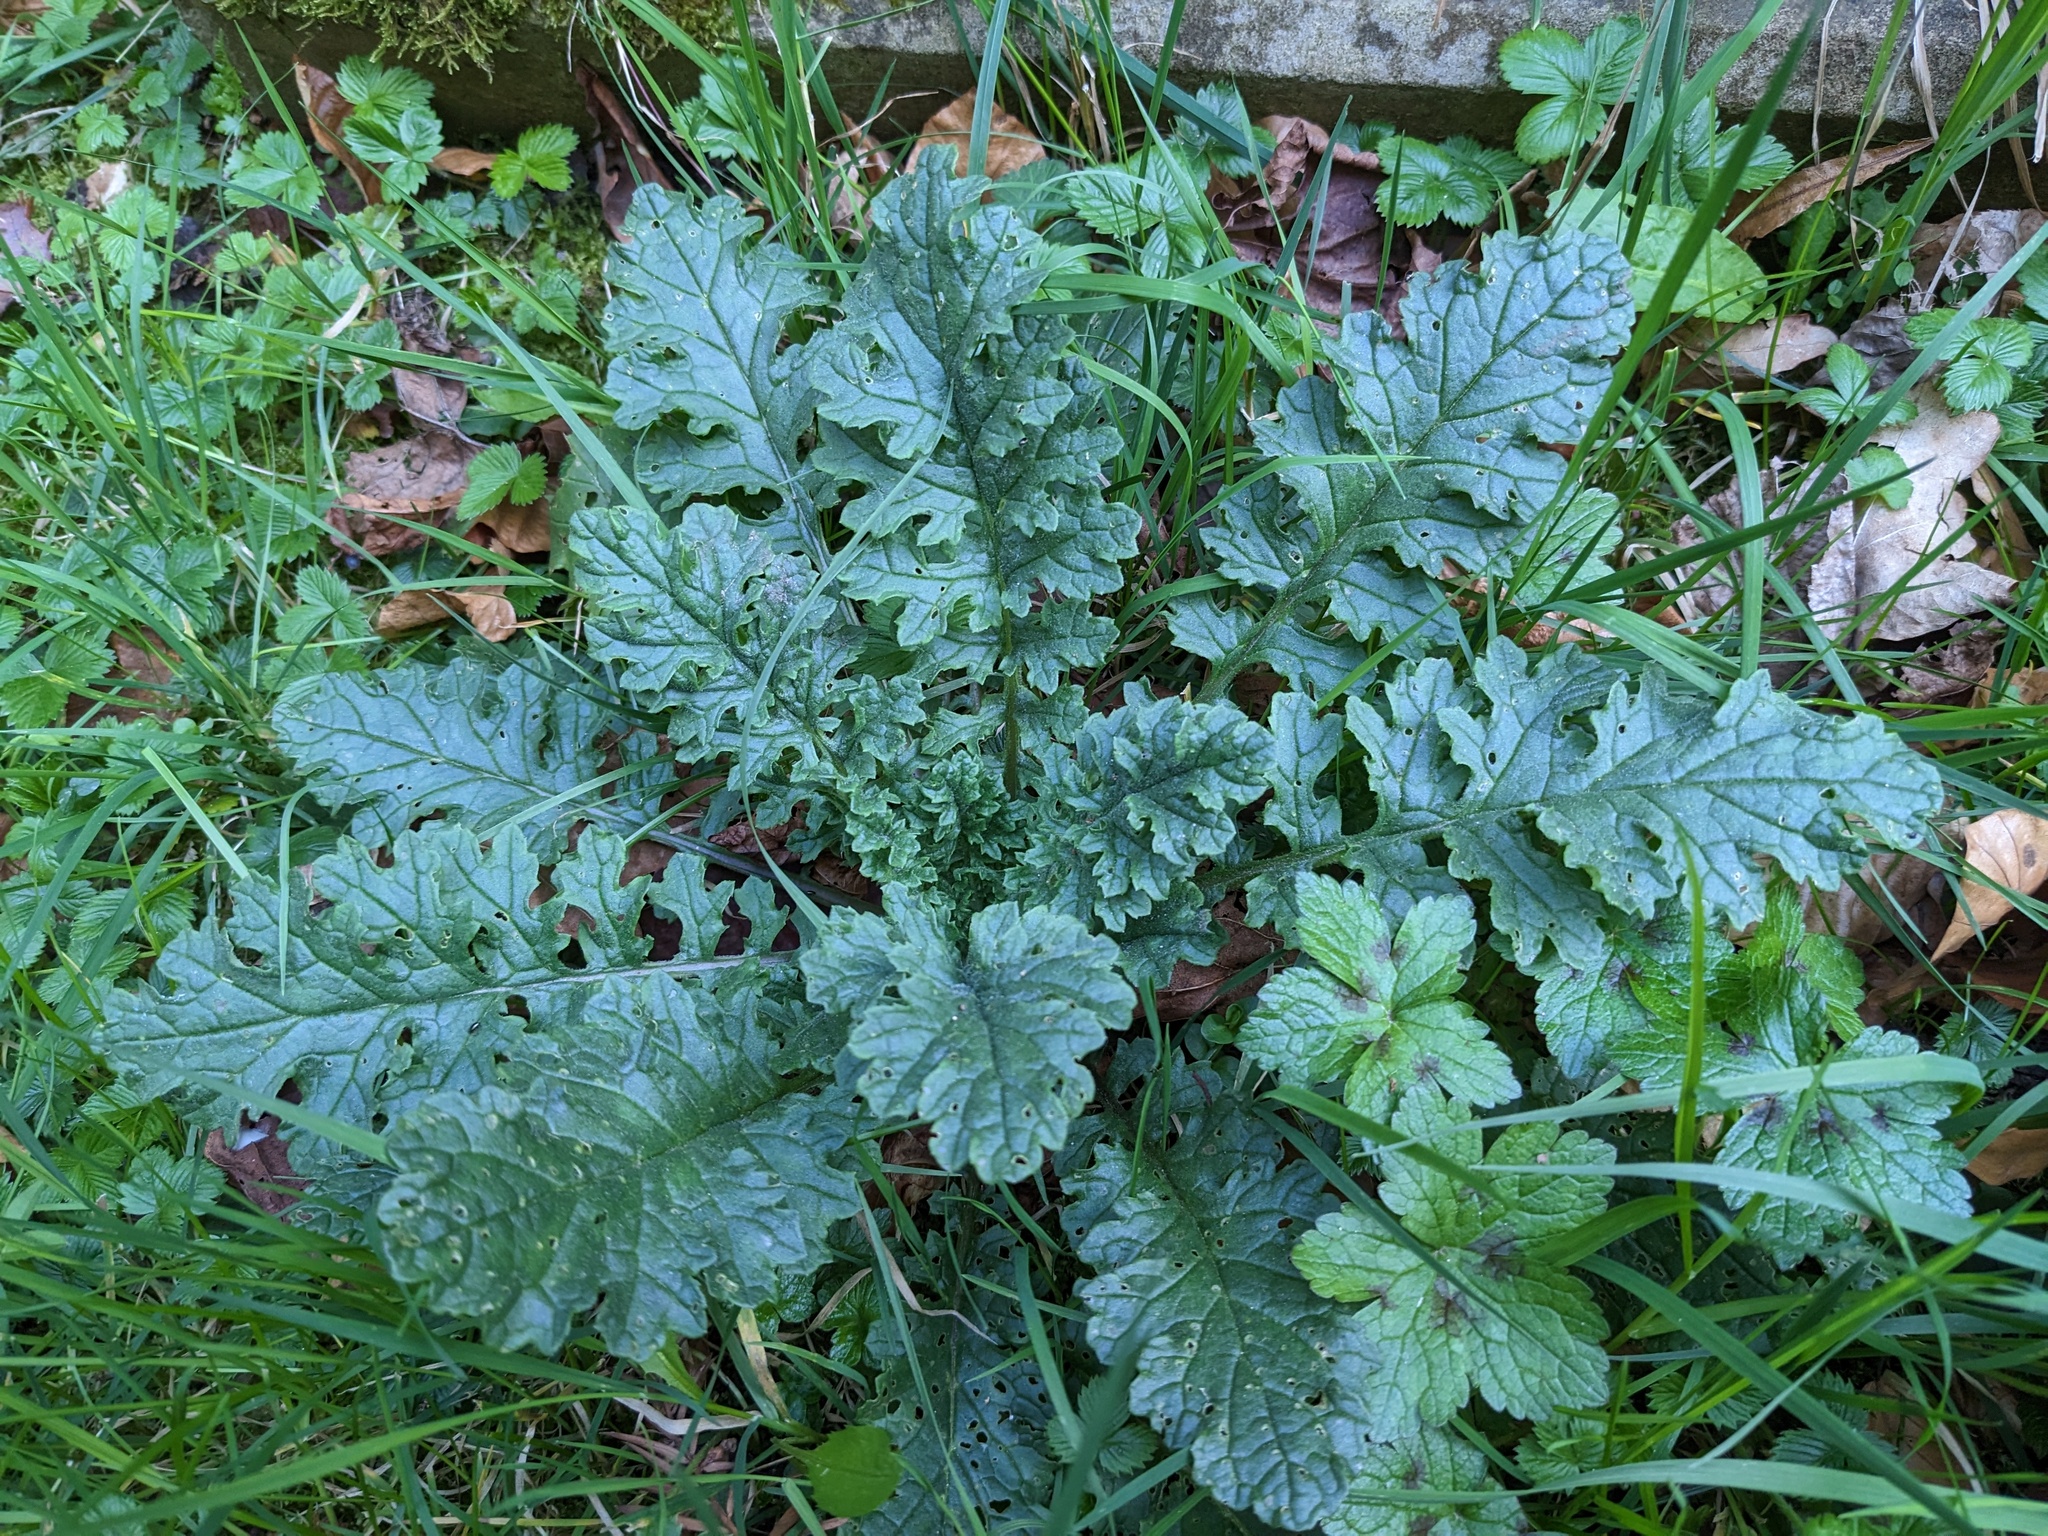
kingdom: Plantae
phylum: Tracheophyta
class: Magnoliopsida
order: Asterales
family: Asteraceae
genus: Jacobaea
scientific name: Jacobaea vulgaris
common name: Stinking willie
